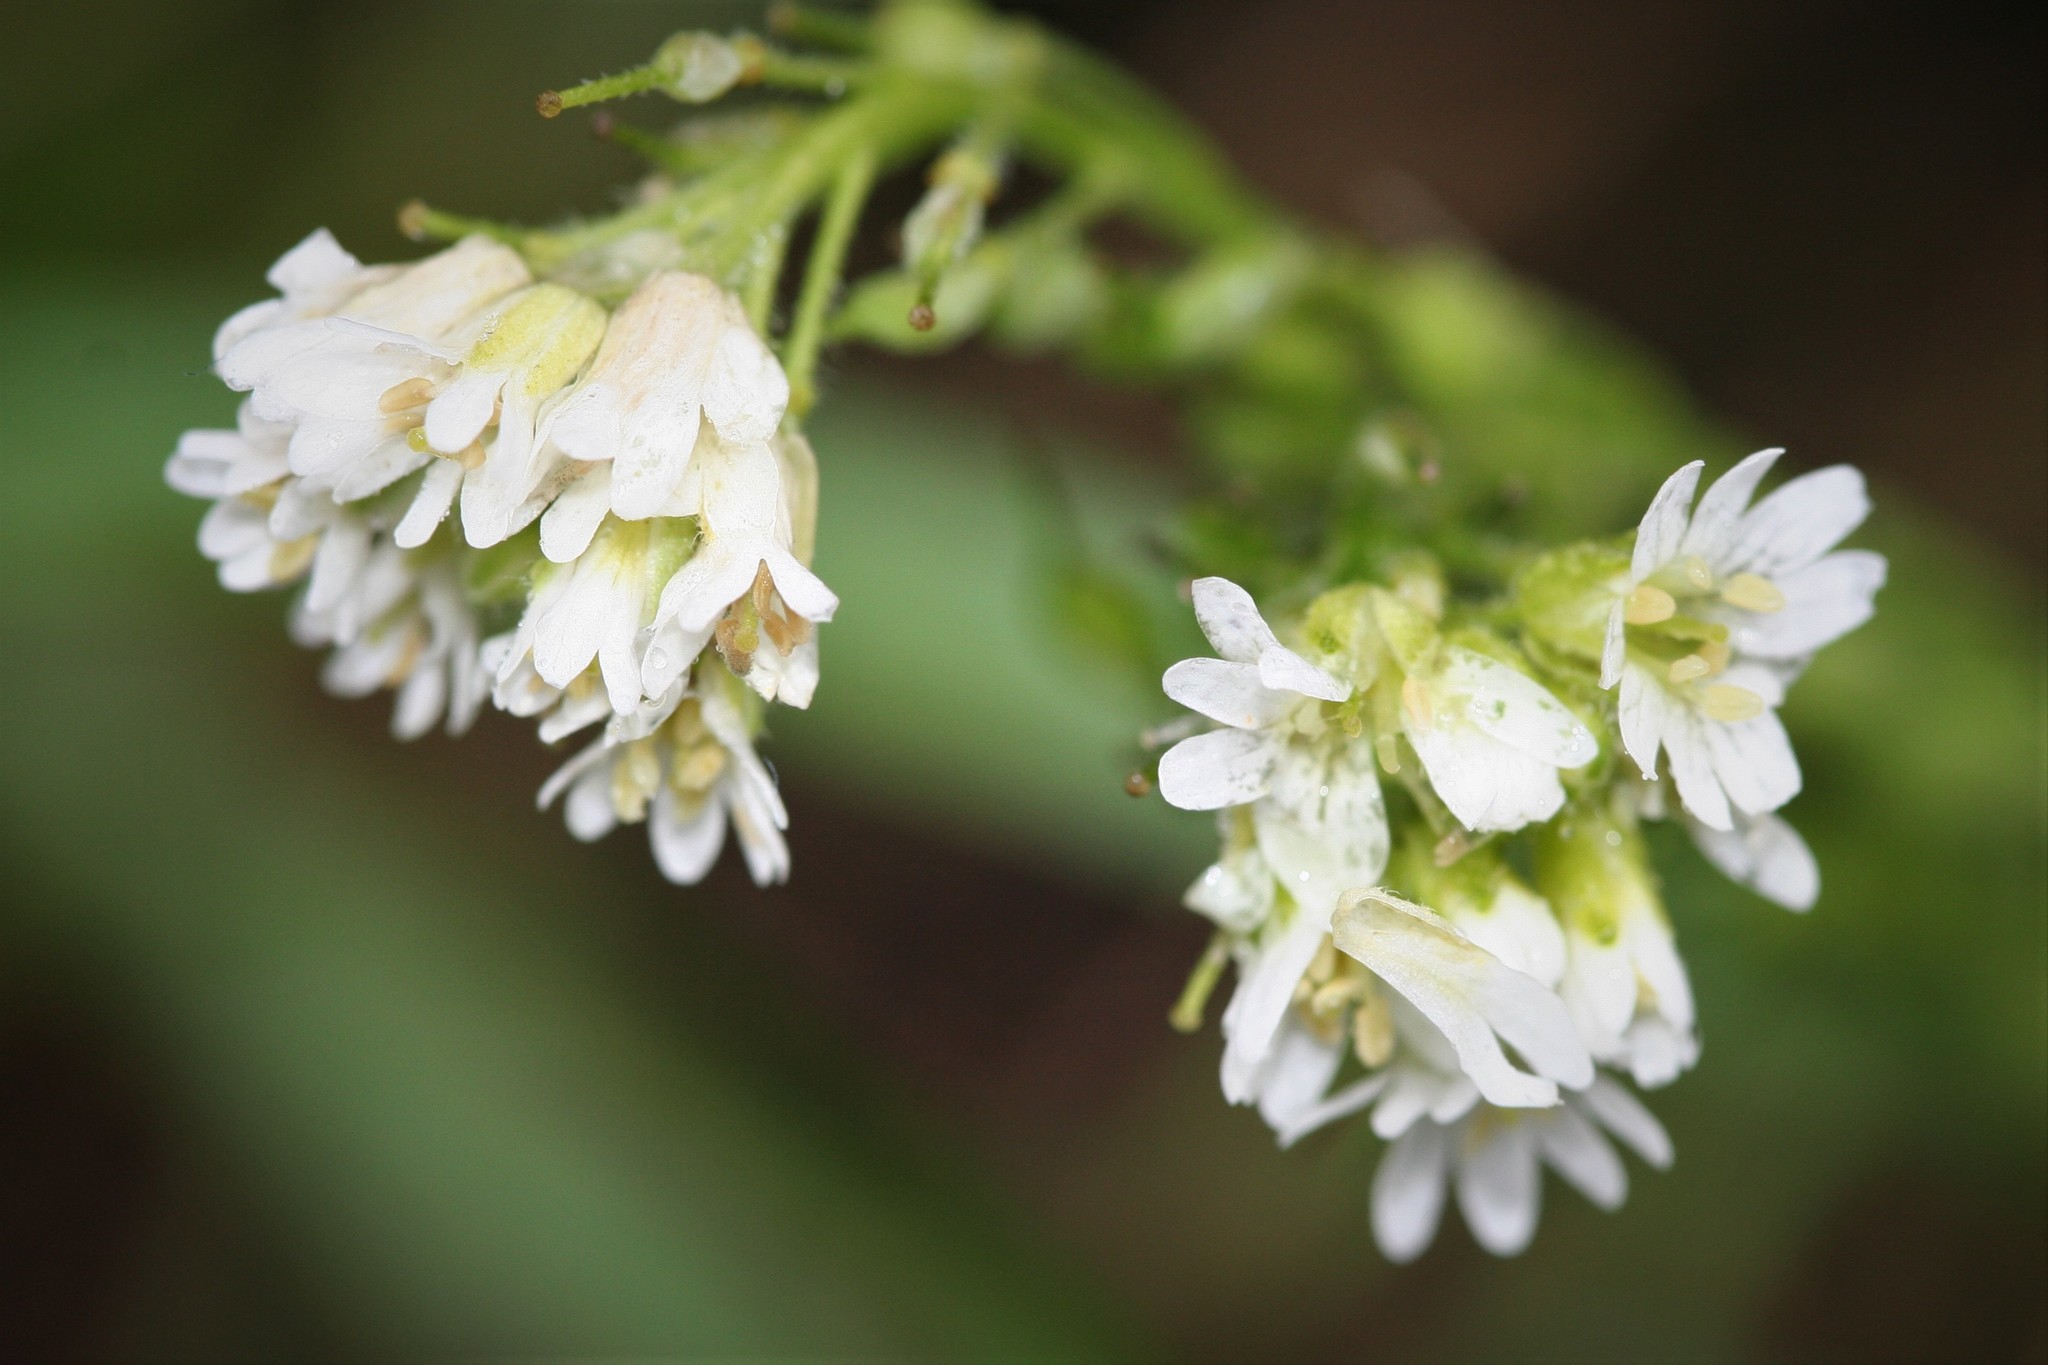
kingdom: Plantae
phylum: Tracheophyta
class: Magnoliopsida
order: Brassicales
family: Brassicaceae
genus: Berteroa
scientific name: Berteroa incana
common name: Hoary alison
